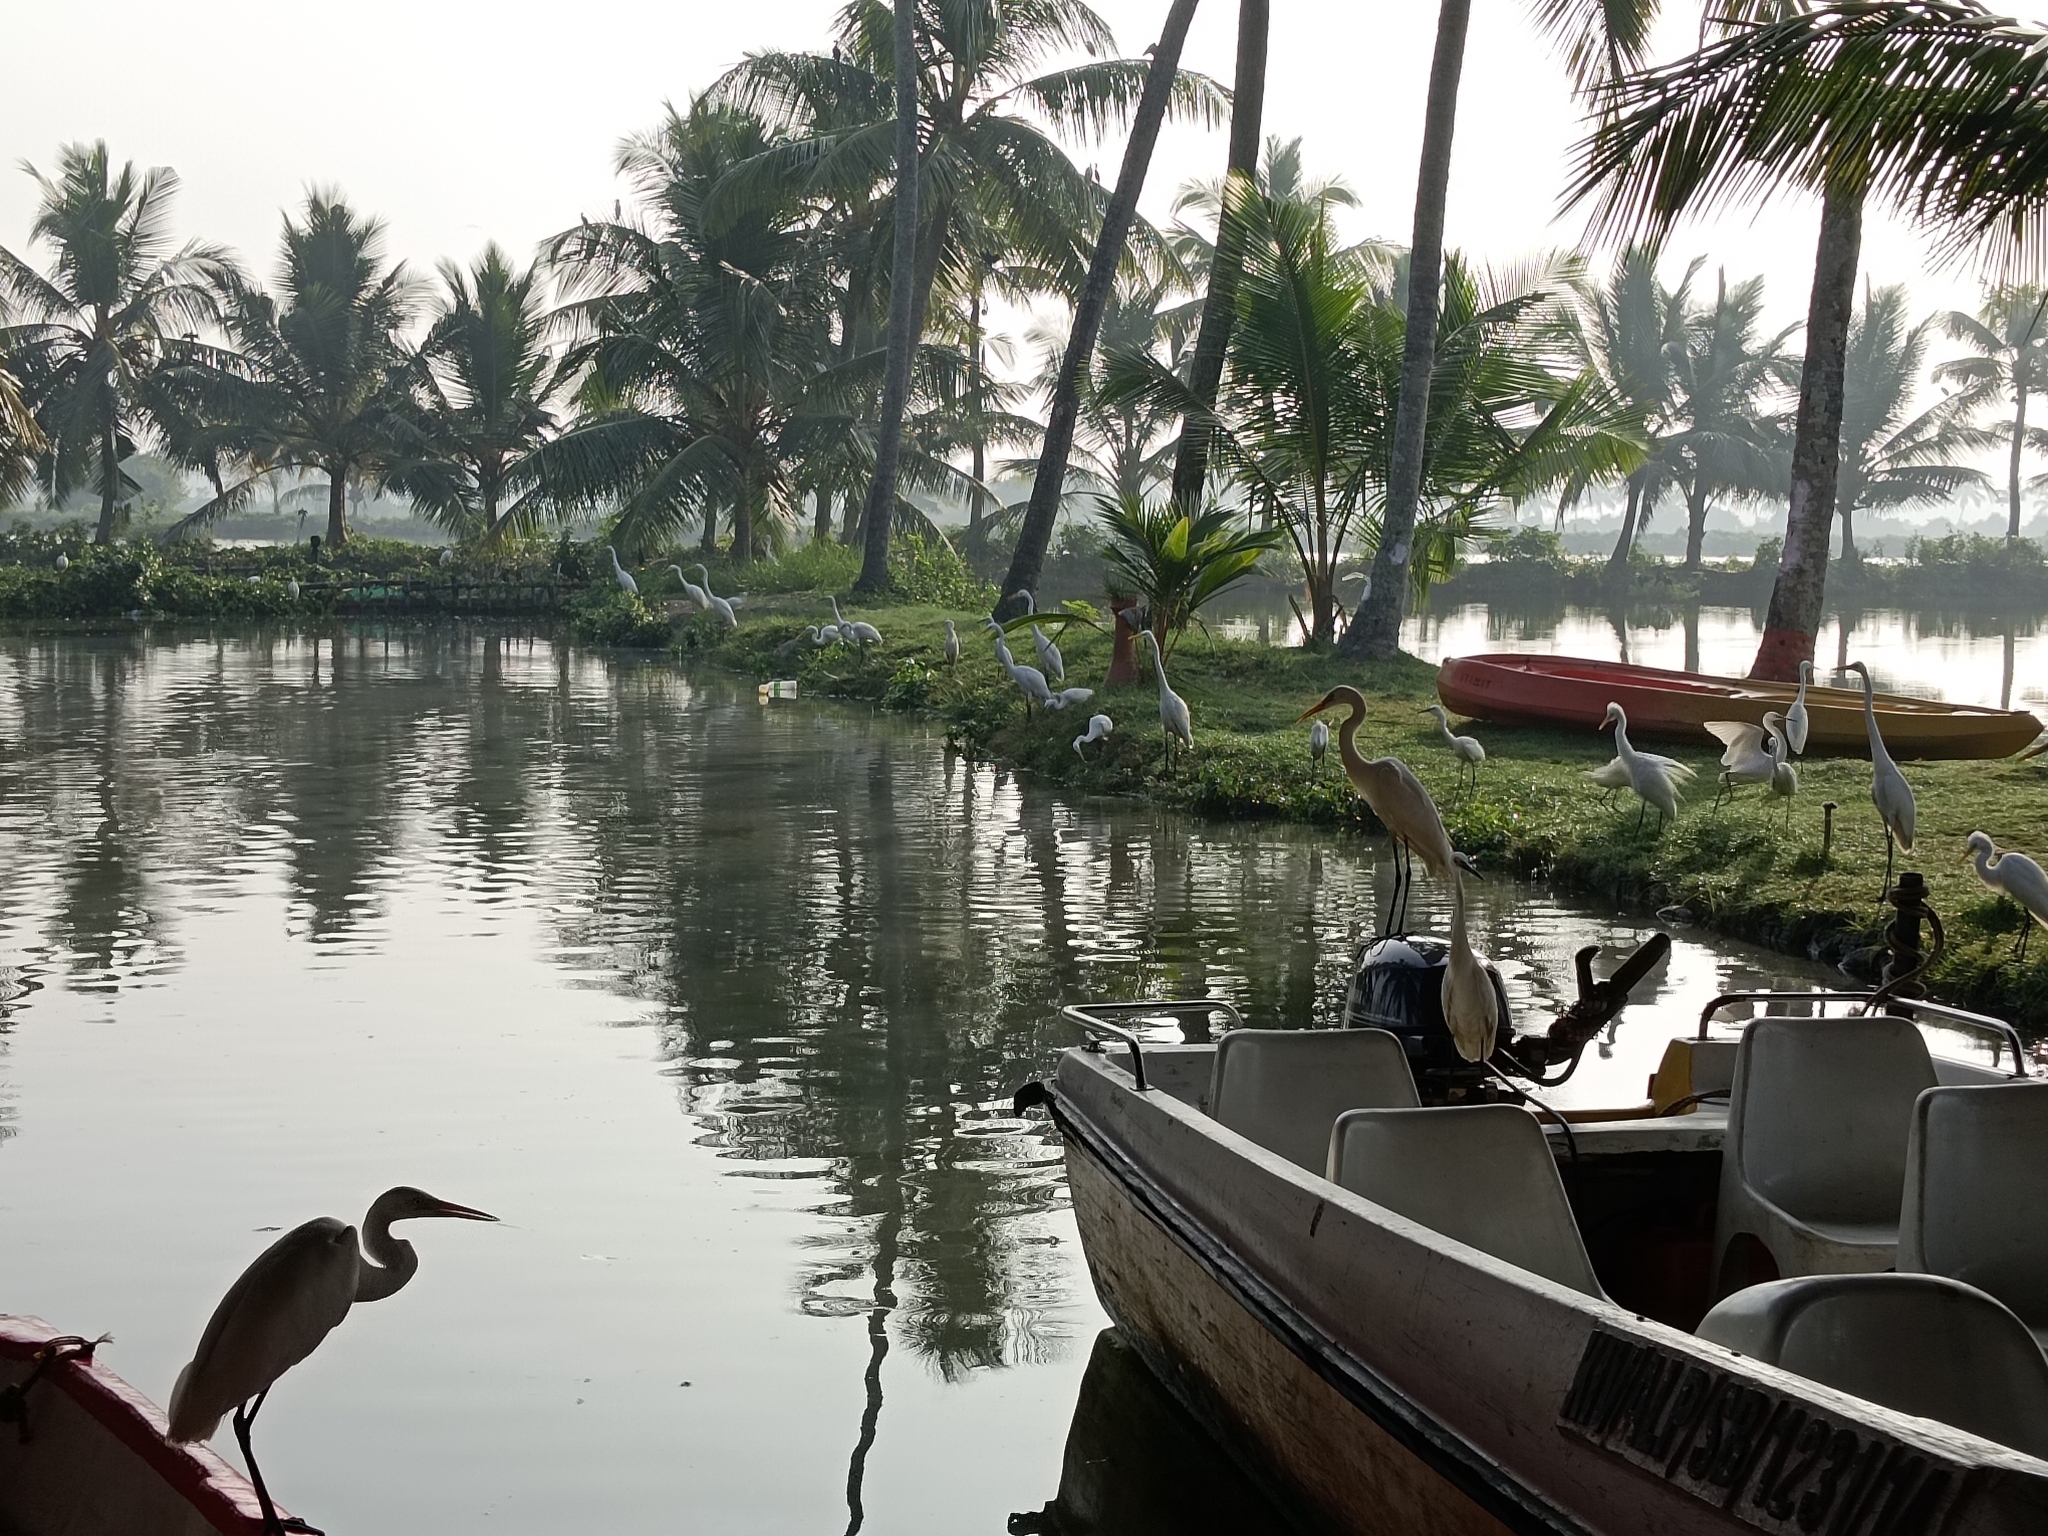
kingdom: Animalia
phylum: Chordata
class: Aves
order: Pelecaniformes
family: Ardeidae
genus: Egretta
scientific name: Egretta garzetta
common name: Little egret
